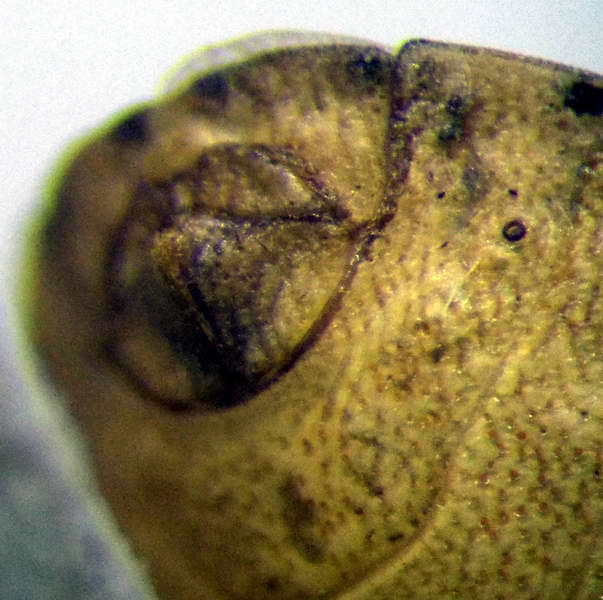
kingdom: Animalia
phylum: Arthropoda
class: Insecta
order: Hemiptera
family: Pentatomidae
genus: Sciocoris
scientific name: Sciocoris sulcatus
